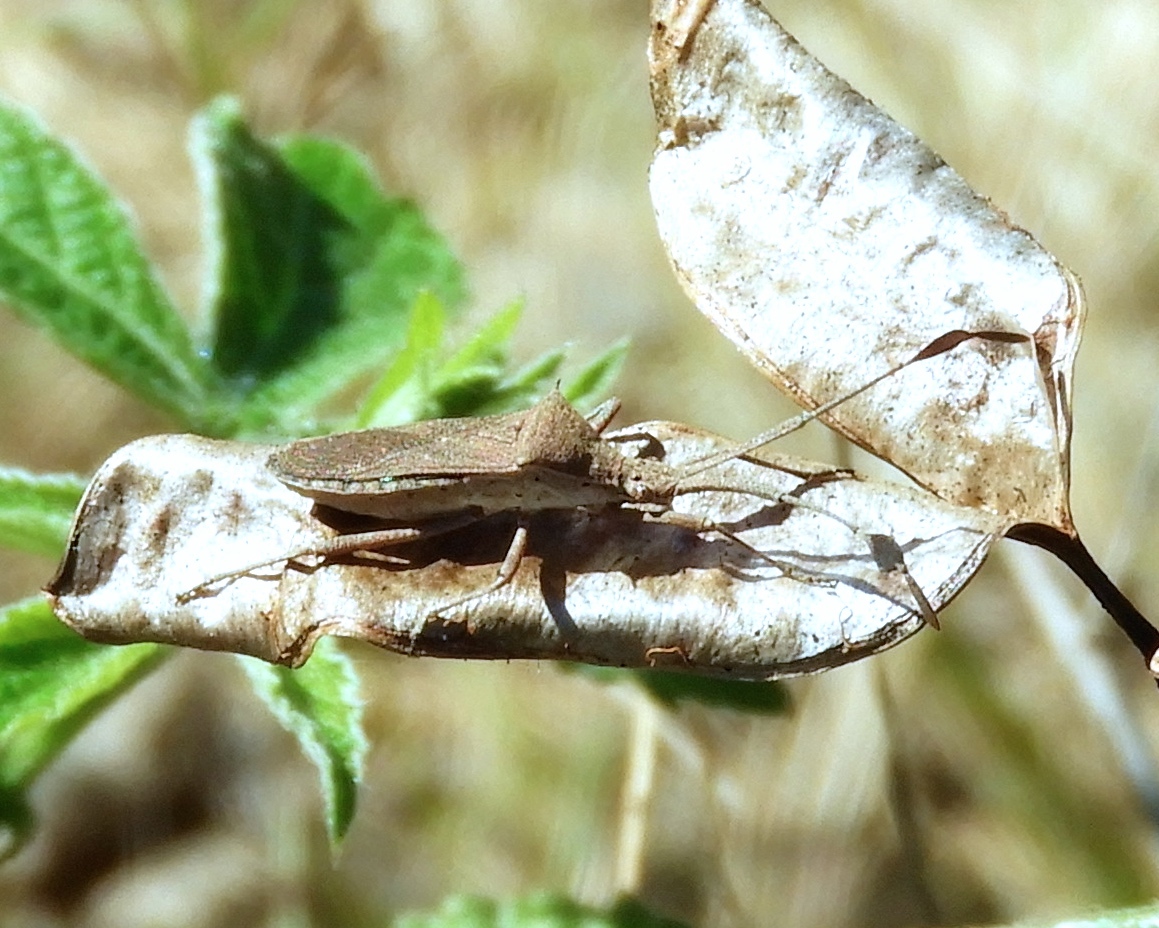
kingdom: Animalia
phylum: Arthropoda
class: Insecta
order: Hemiptera
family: Coreidae
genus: Chariesterus
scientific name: Chariesterus
